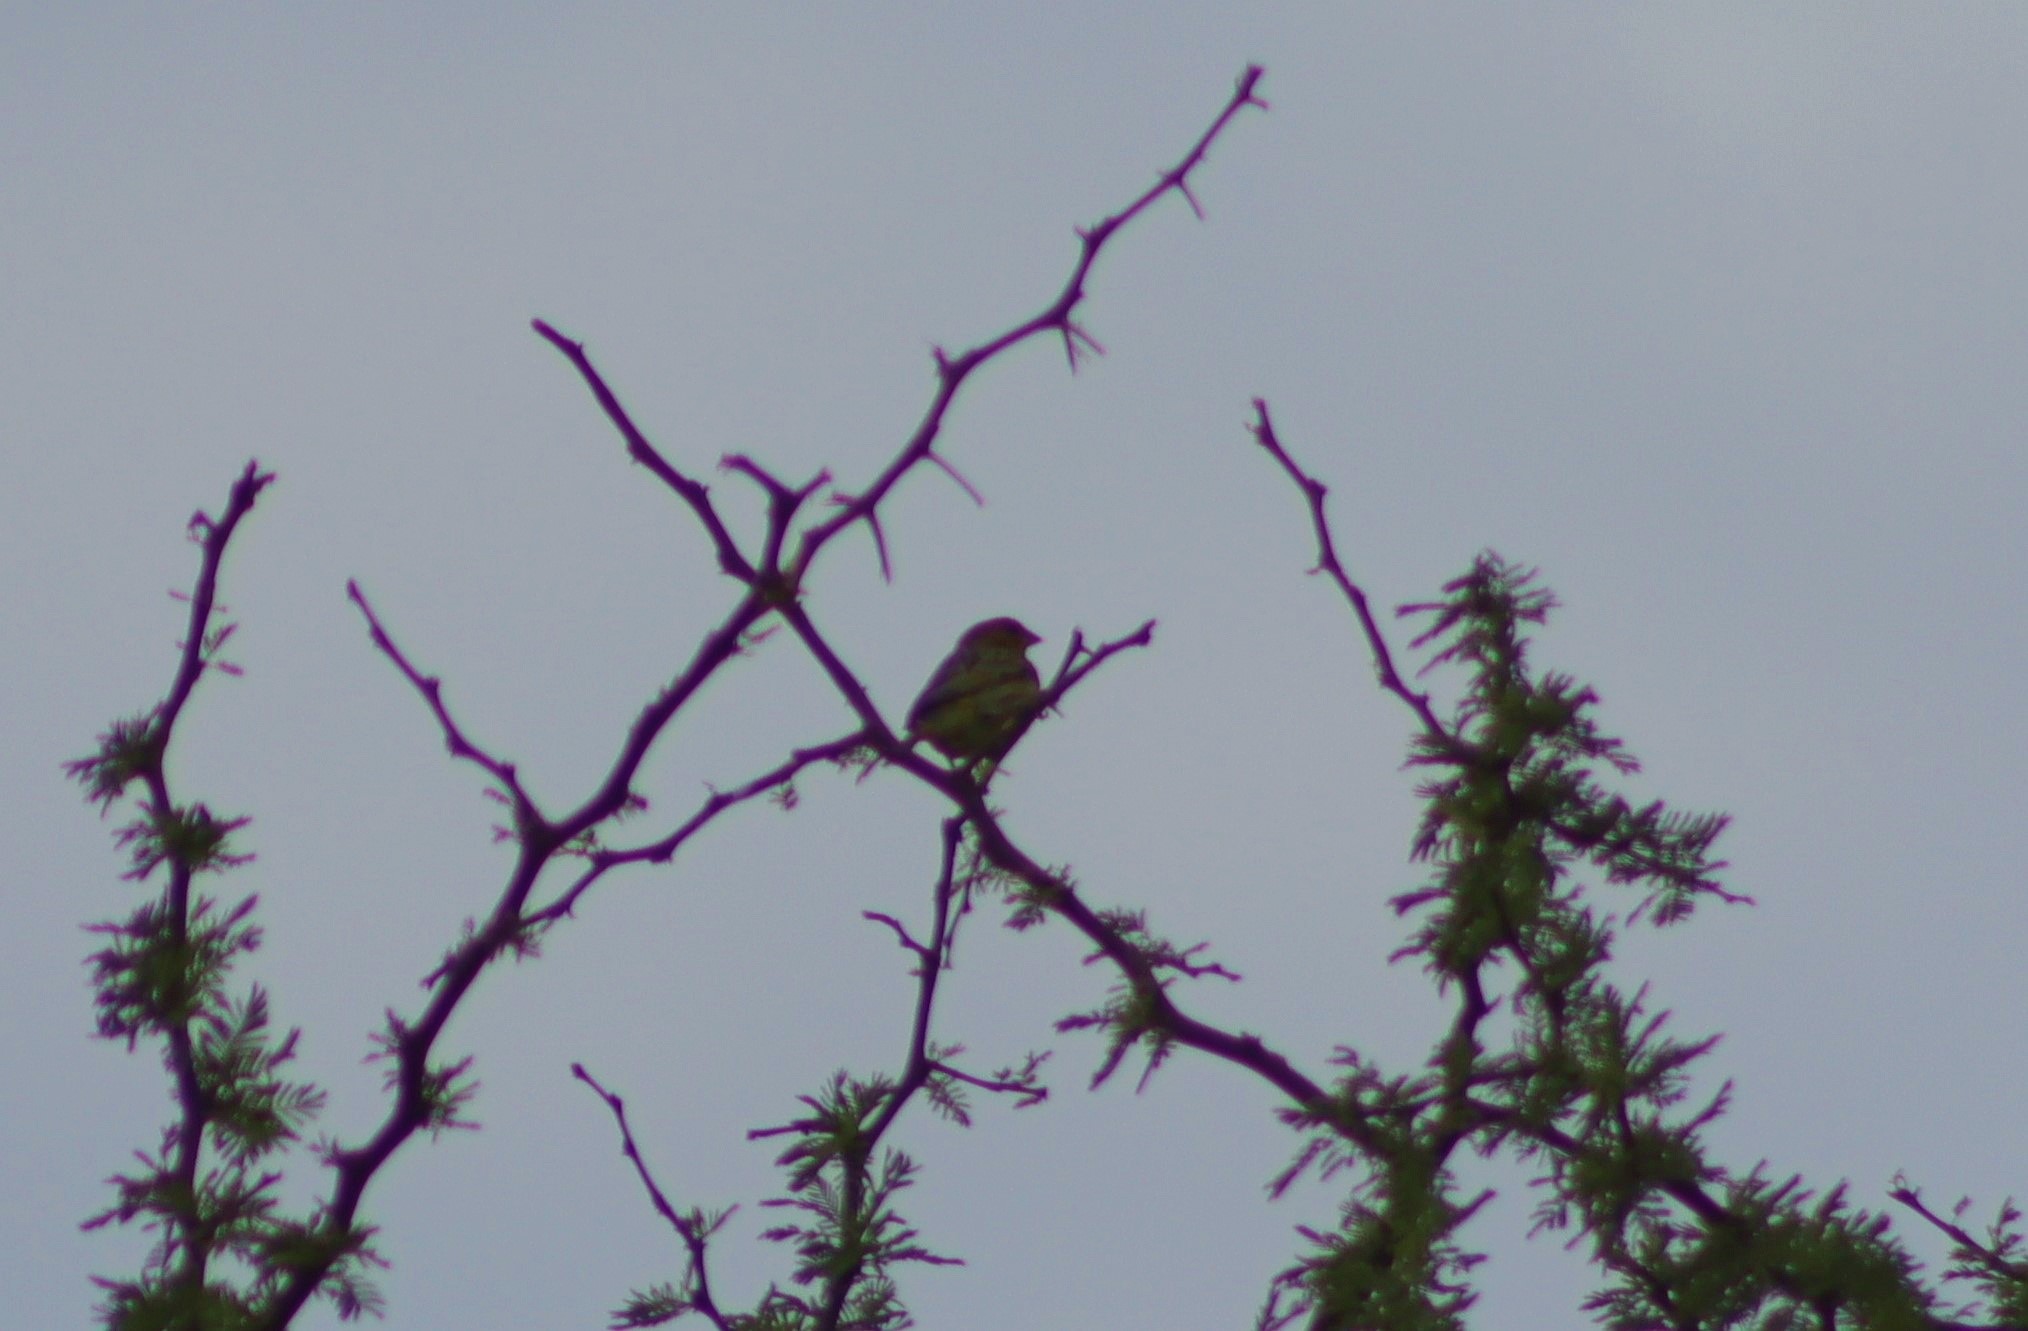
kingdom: Animalia
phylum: Chordata
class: Aves
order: Passeriformes
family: Thraupidae
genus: Sicalis
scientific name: Sicalis flaveola
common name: Saffron finch
